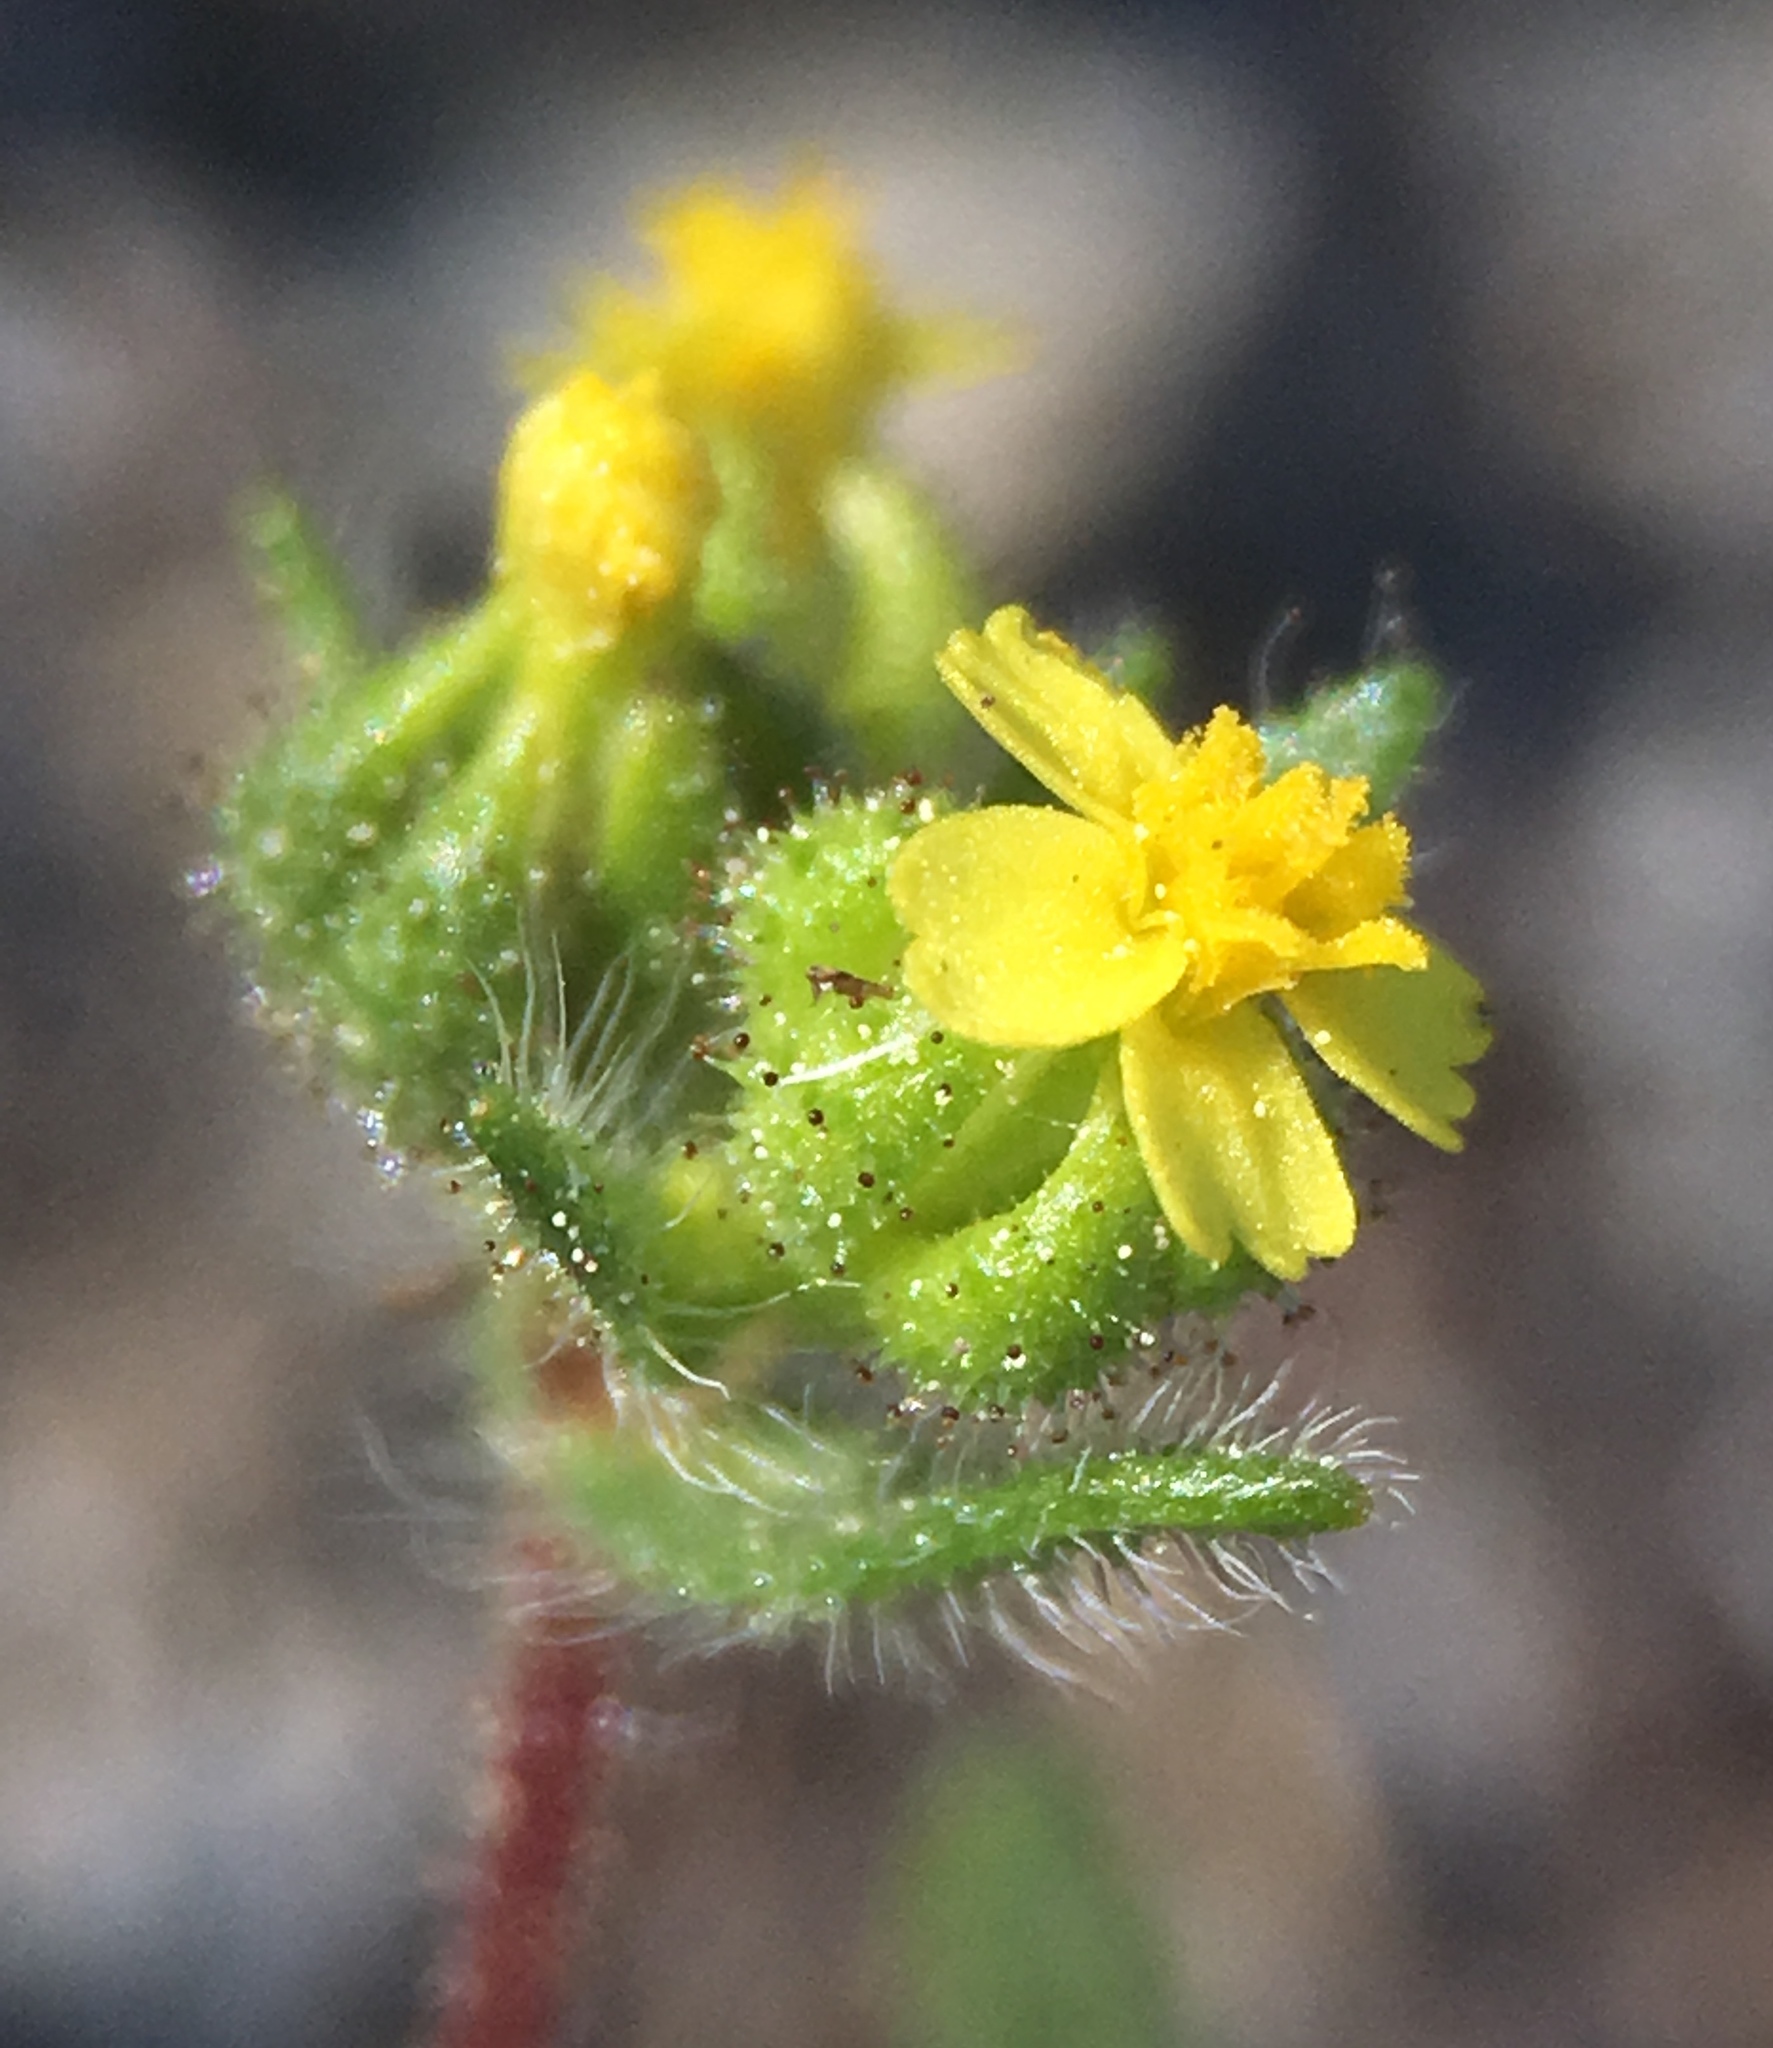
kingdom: Plantae
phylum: Tracheophyta
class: Magnoliopsida
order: Asterales
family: Asteraceae
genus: Madia
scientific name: Madia exigua
